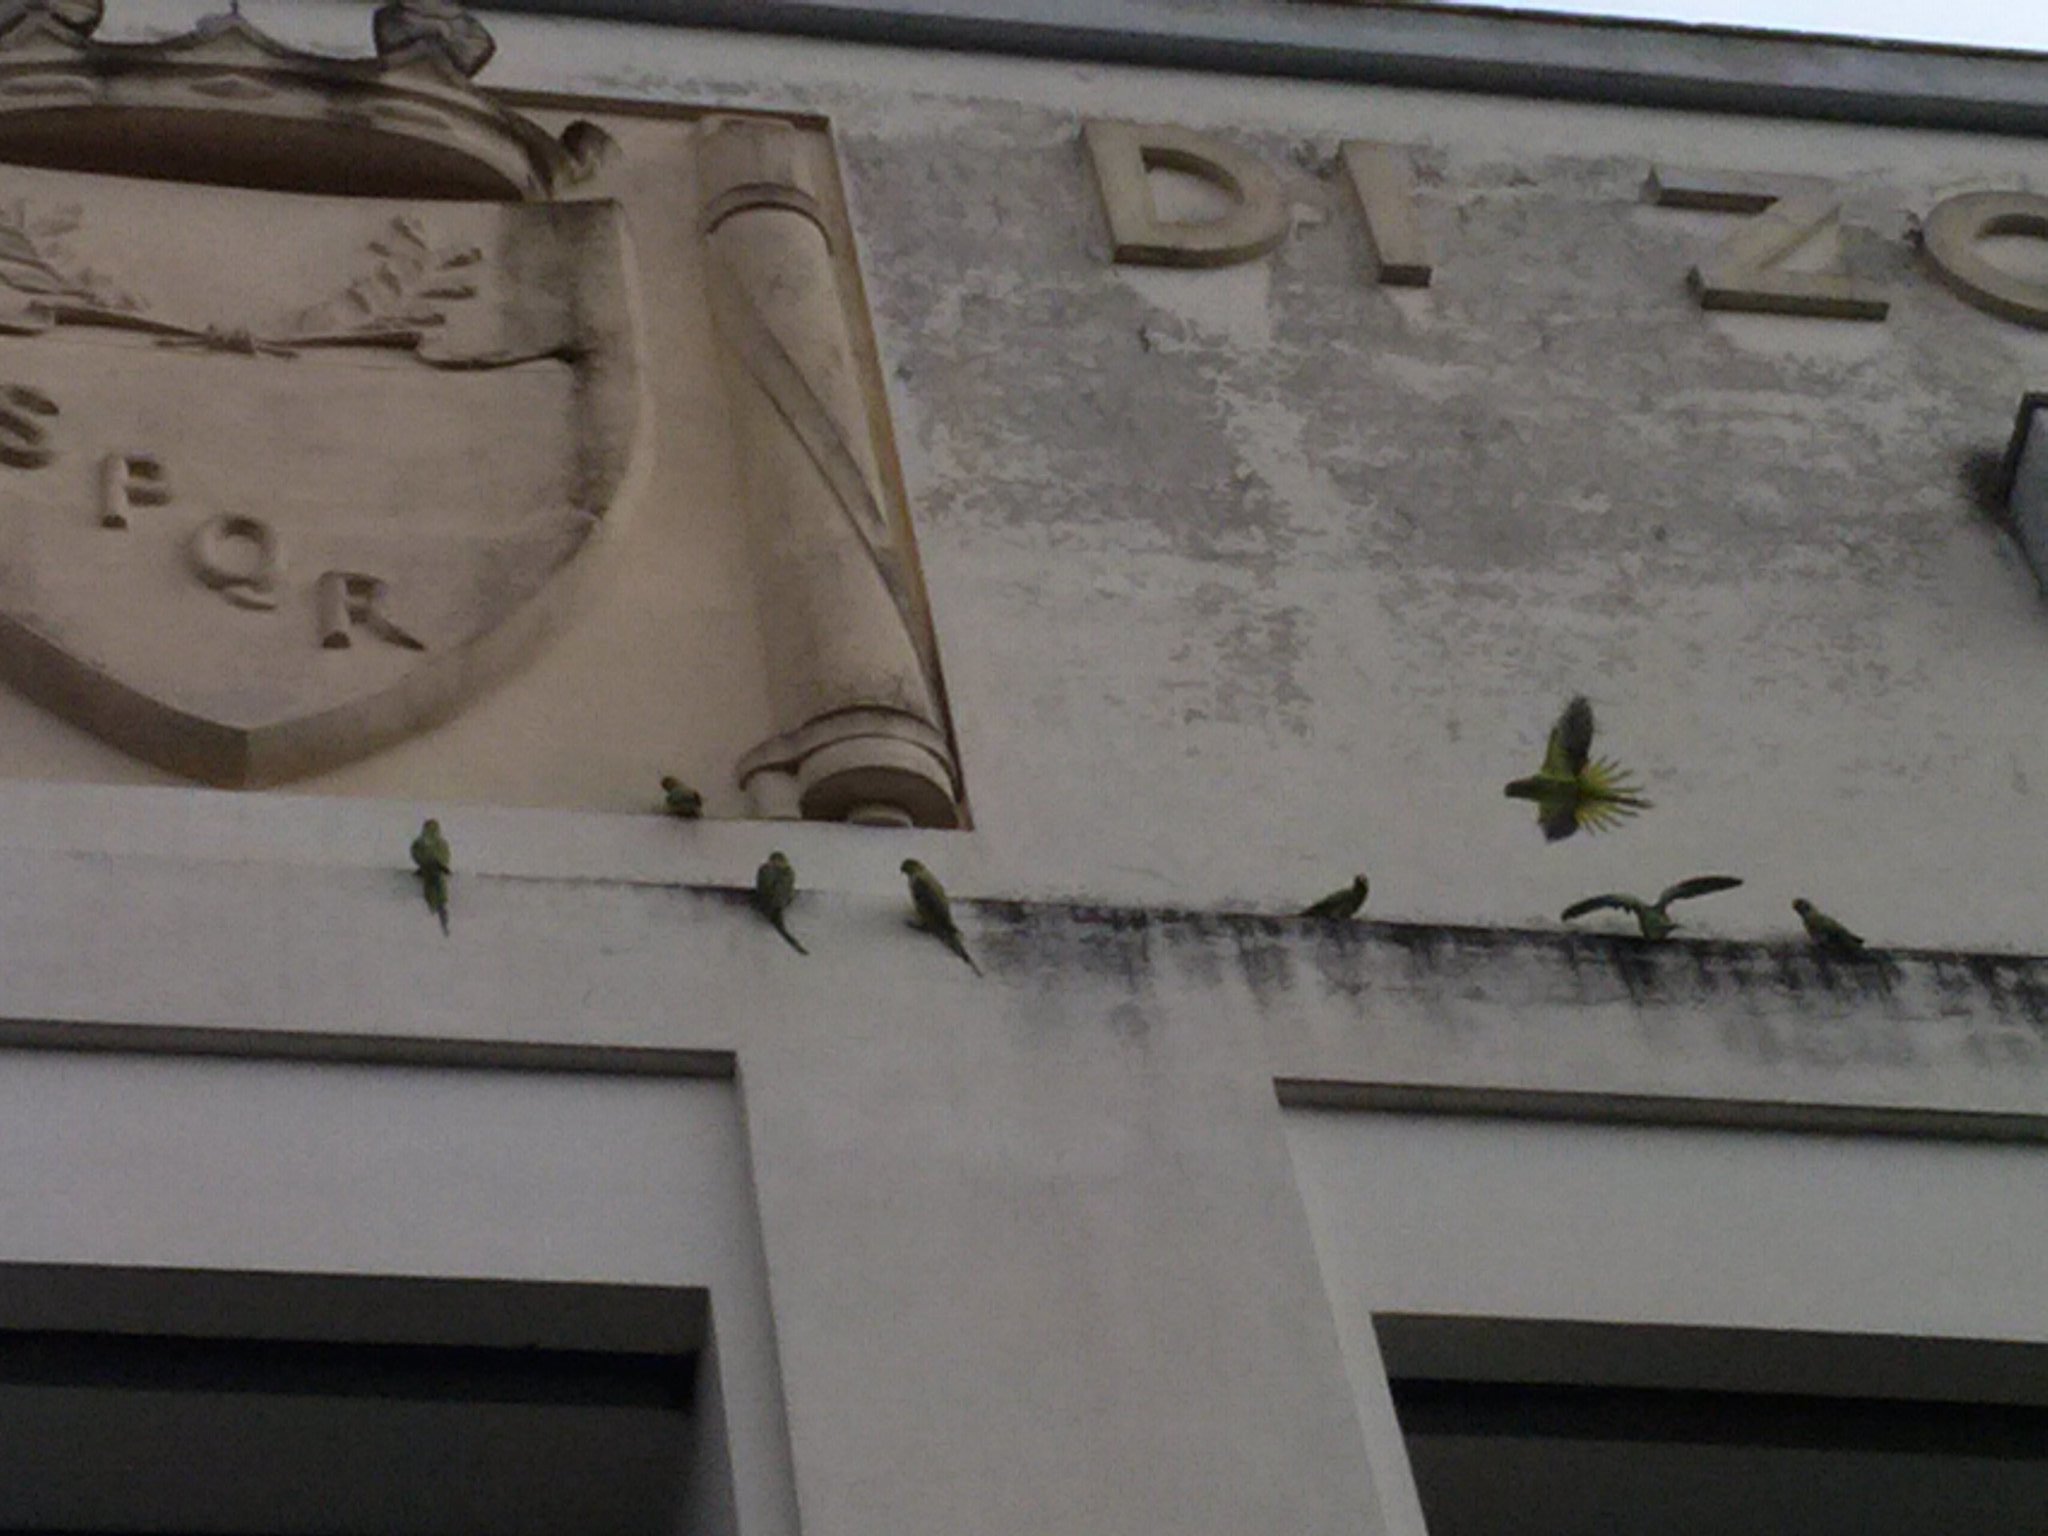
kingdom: Animalia
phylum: Chordata
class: Aves
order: Psittaciformes
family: Psittacidae
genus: Psittacula
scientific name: Psittacula krameri
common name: Rose-ringed parakeet
